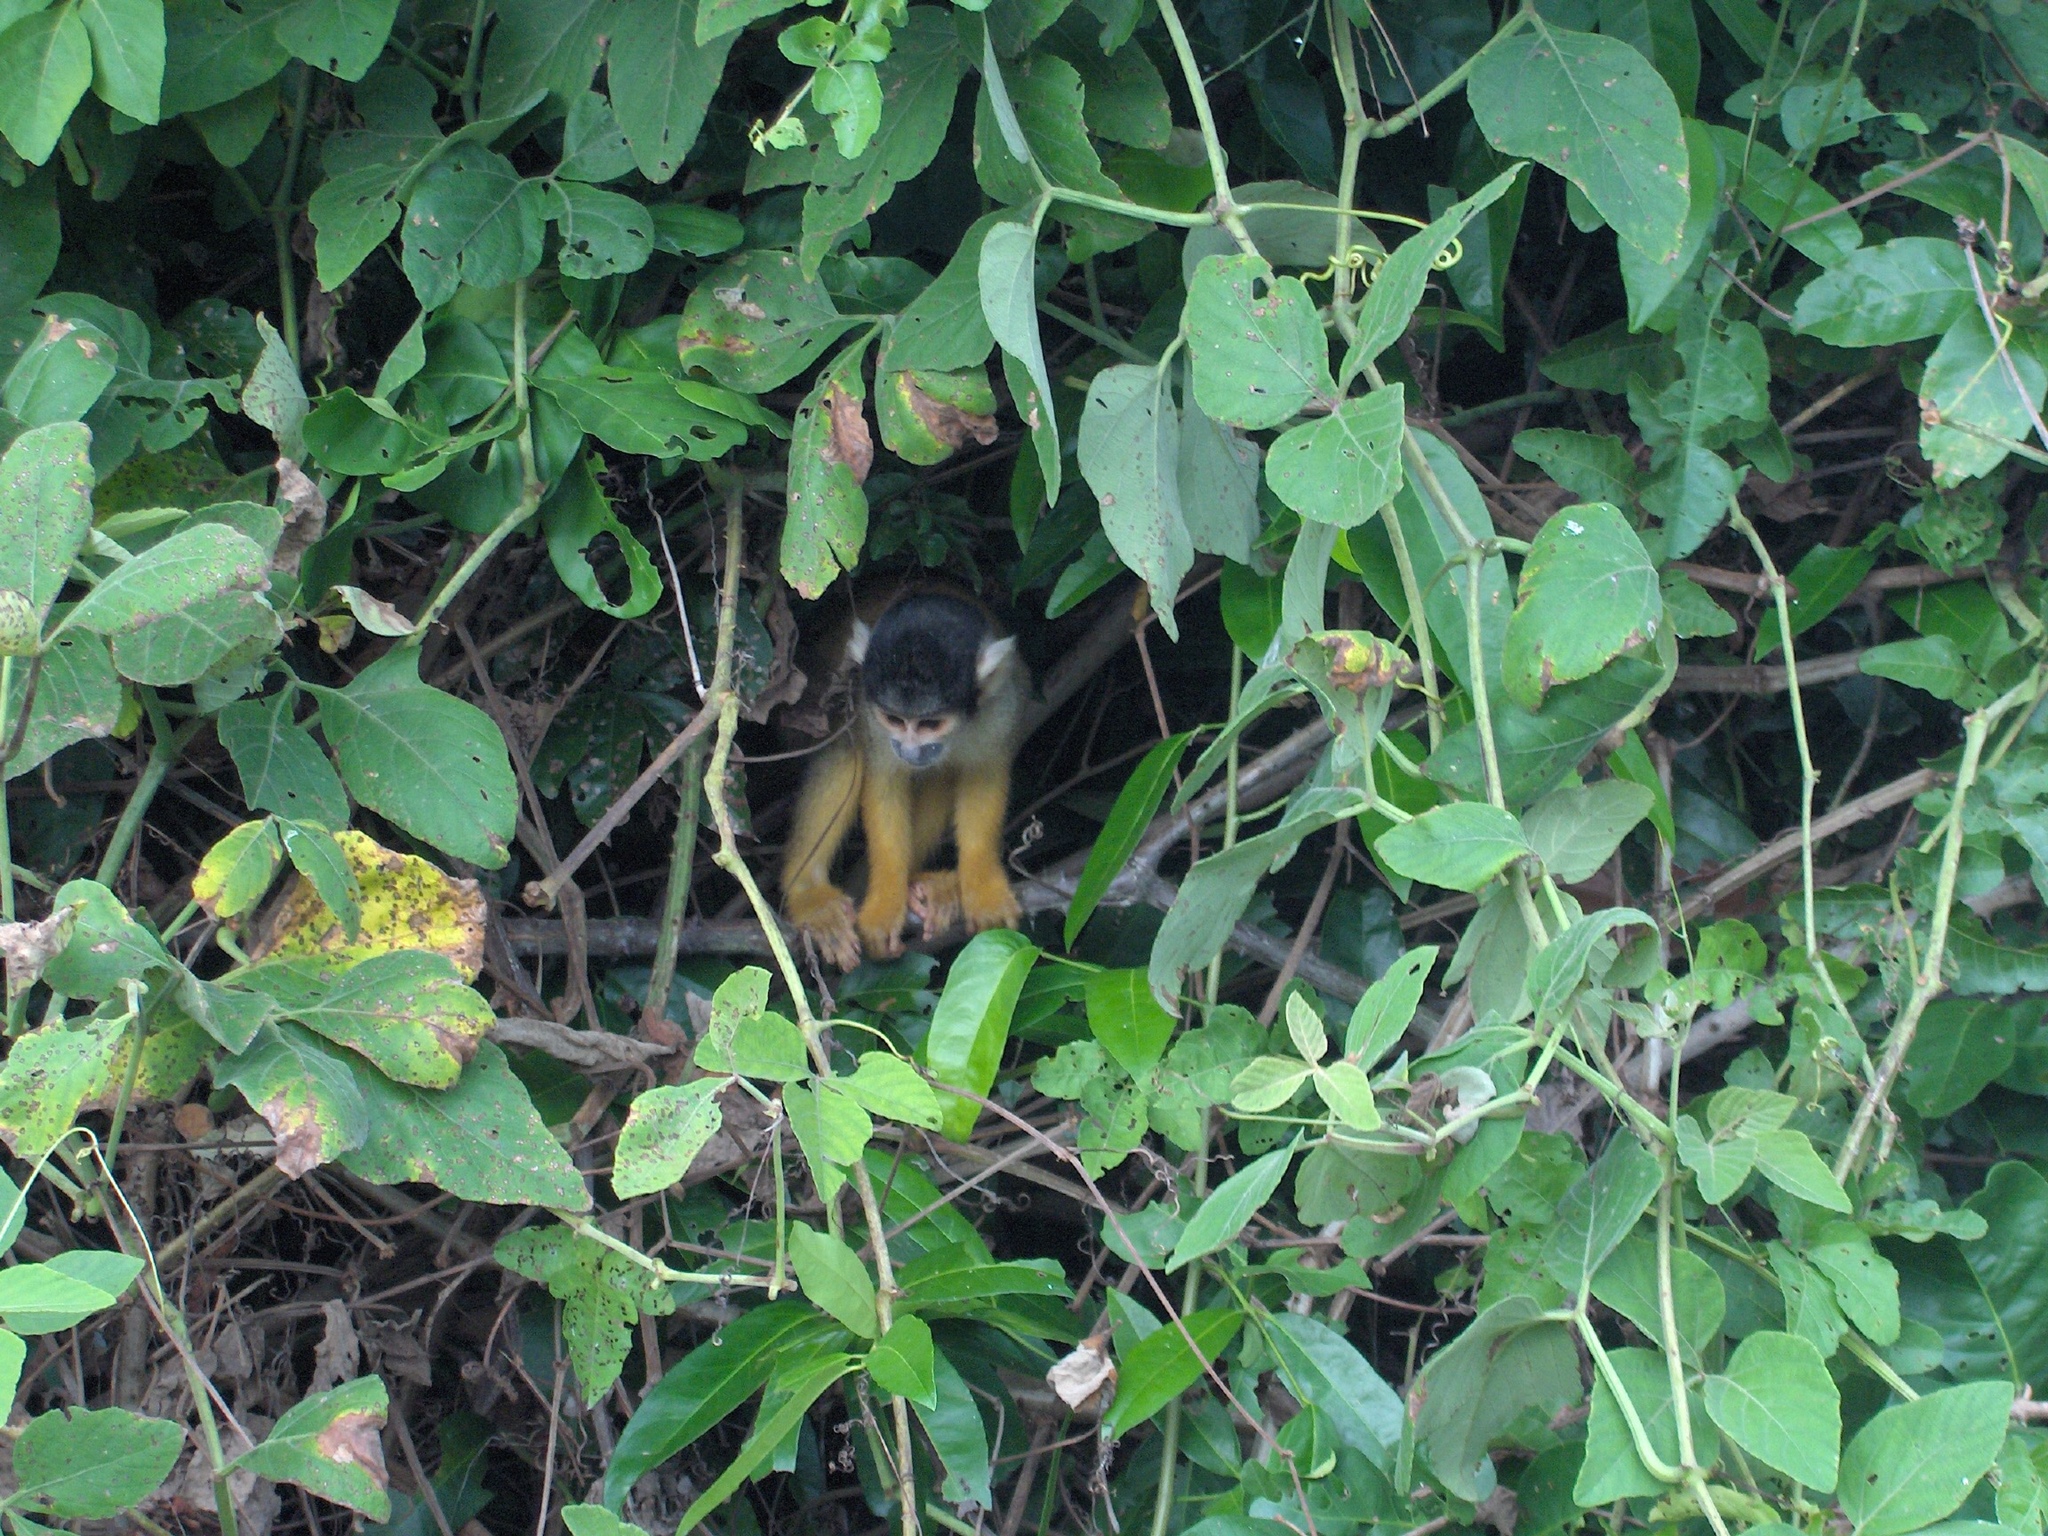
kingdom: Animalia
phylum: Chordata
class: Mammalia
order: Primates
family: Cebidae
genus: Saimiri
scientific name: Saimiri boliviensis
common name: Black-capped squirrel monkey
